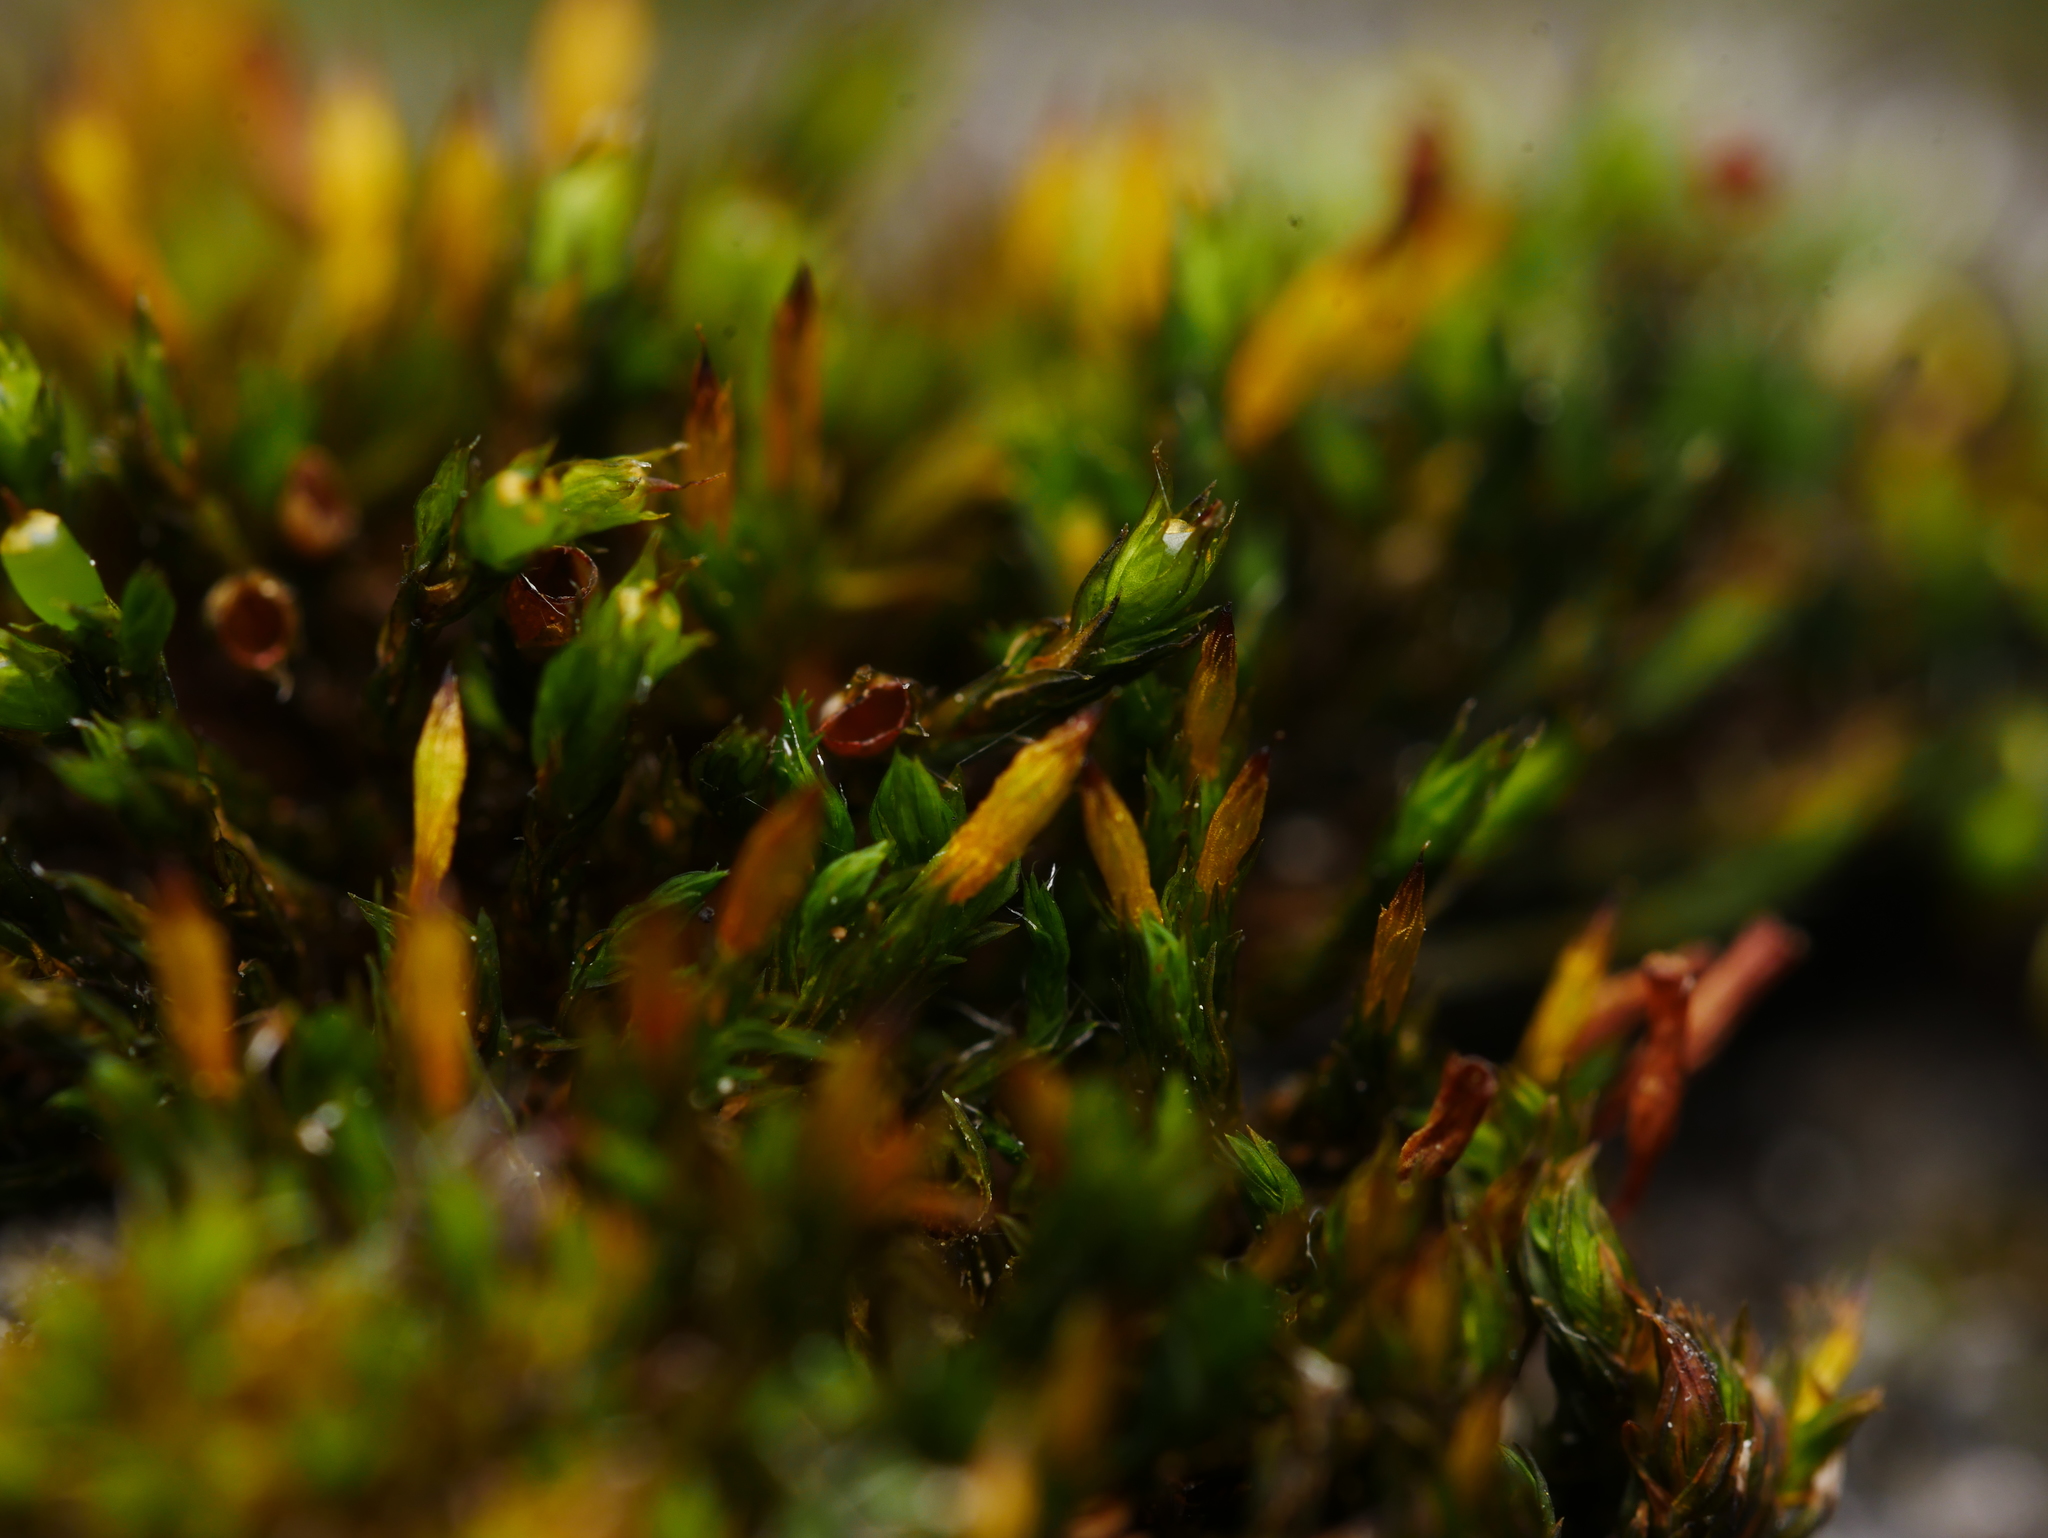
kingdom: Plantae
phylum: Bryophyta
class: Bryopsida
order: Orthotrichales
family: Orthotrichaceae
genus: Orthotrichum
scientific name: Orthotrichum anomalum
